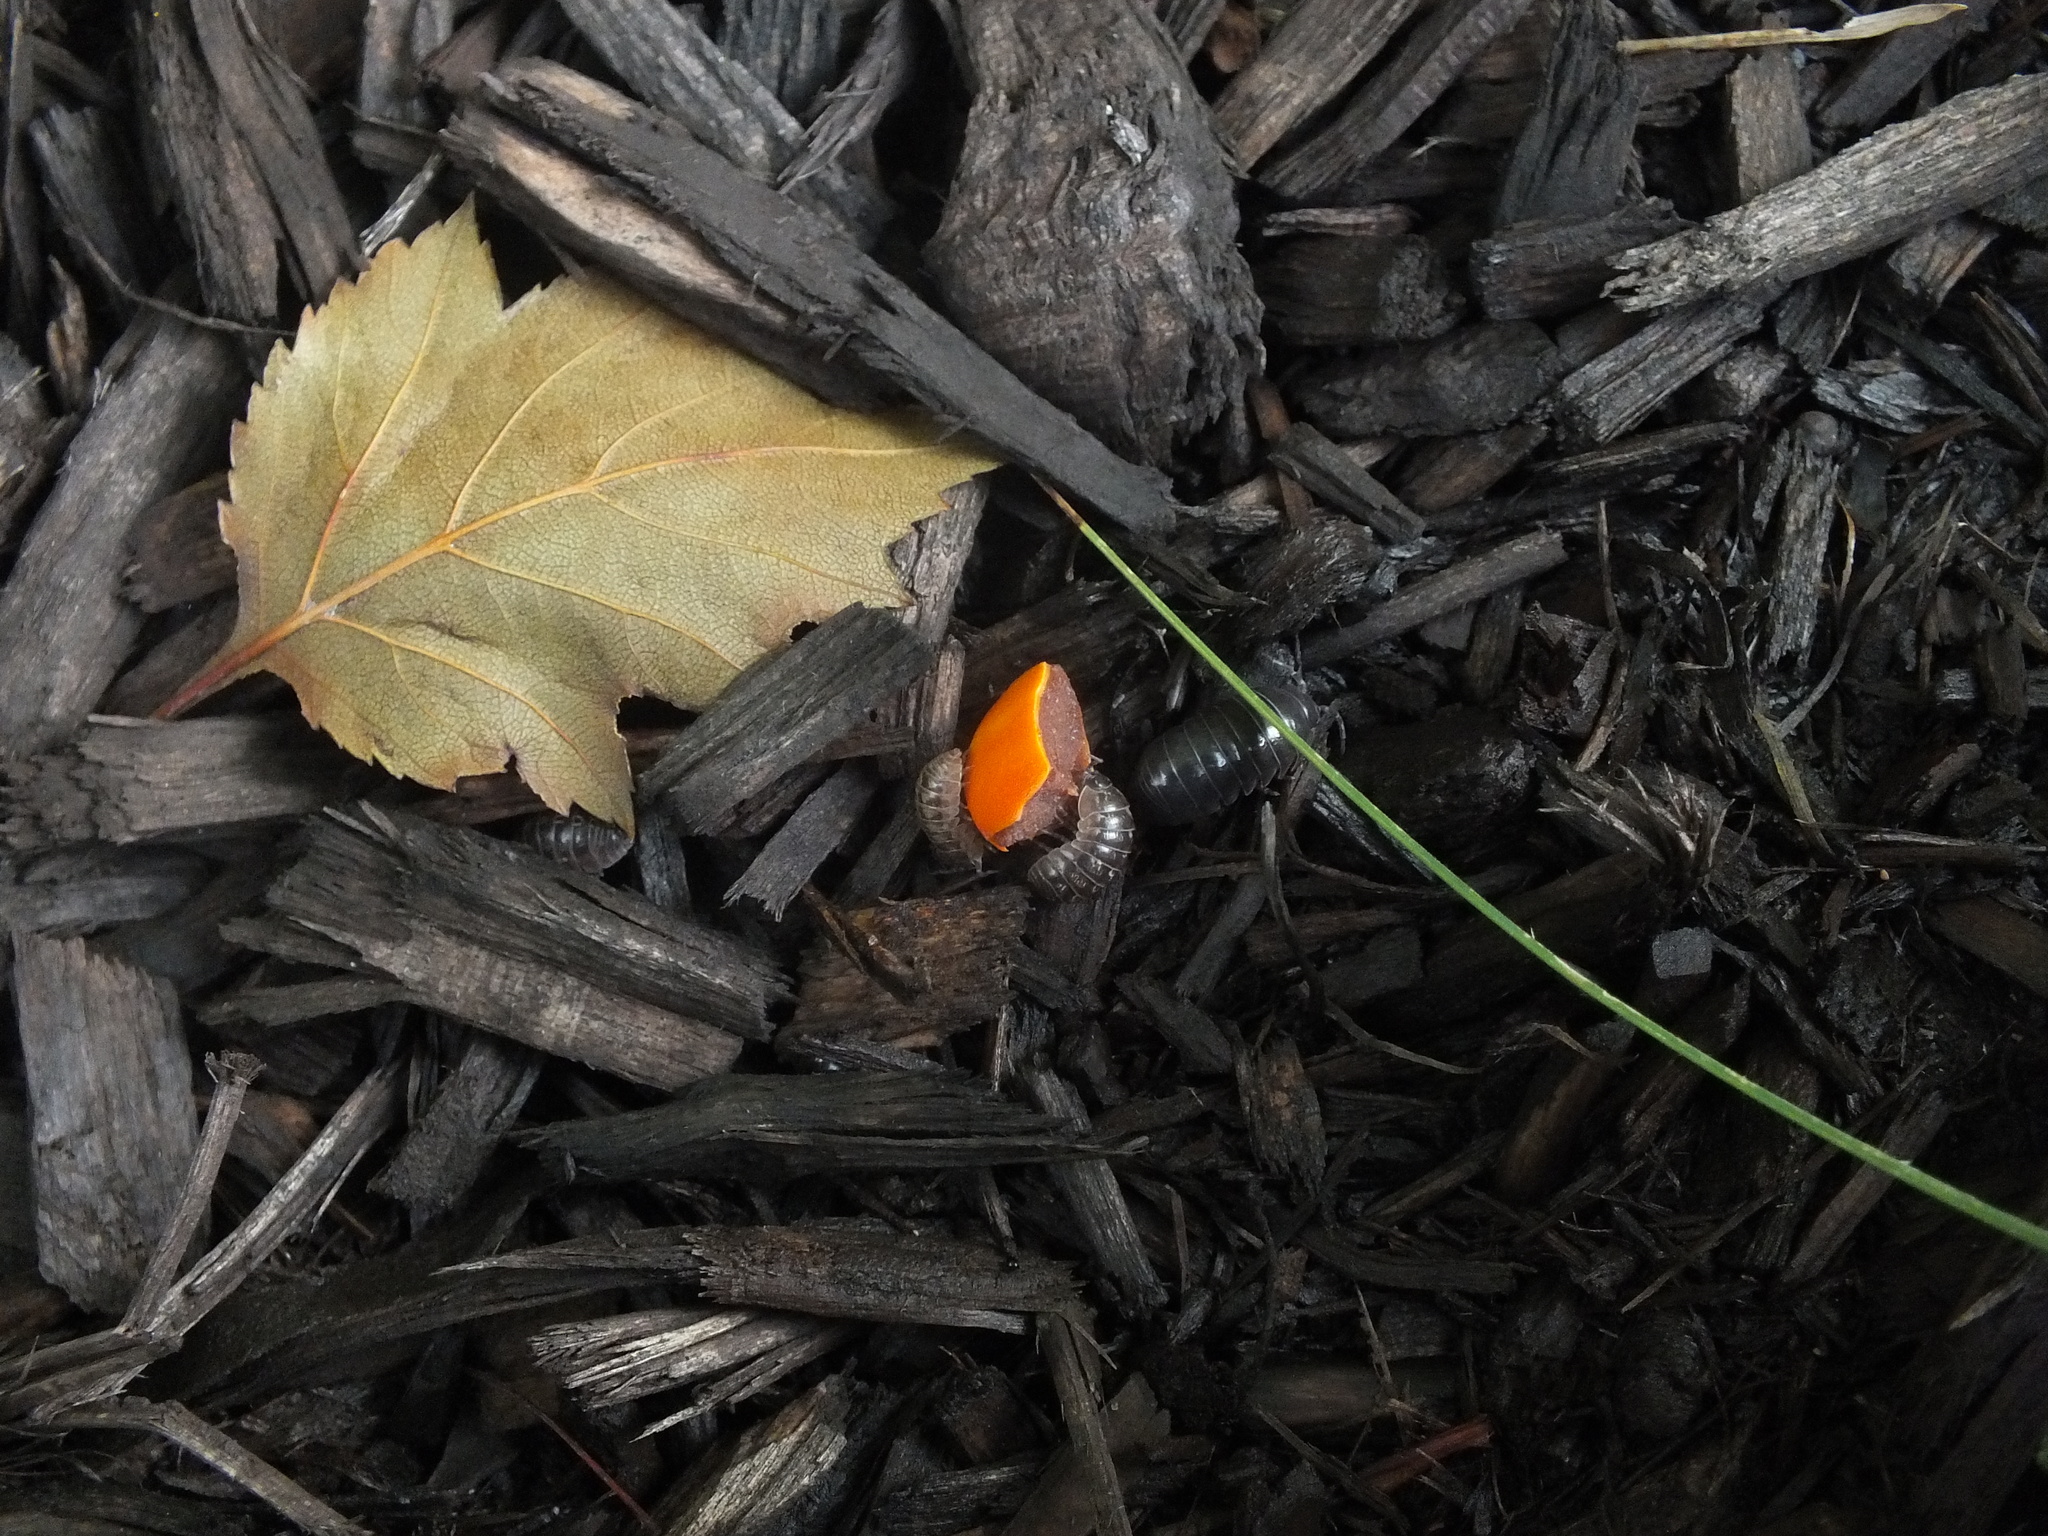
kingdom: Animalia
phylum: Arthropoda
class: Malacostraca
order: Isopoda
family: Armadillidiidae
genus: Armadillidium
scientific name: Armadillidium vulgare
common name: Common pill woodlouse
